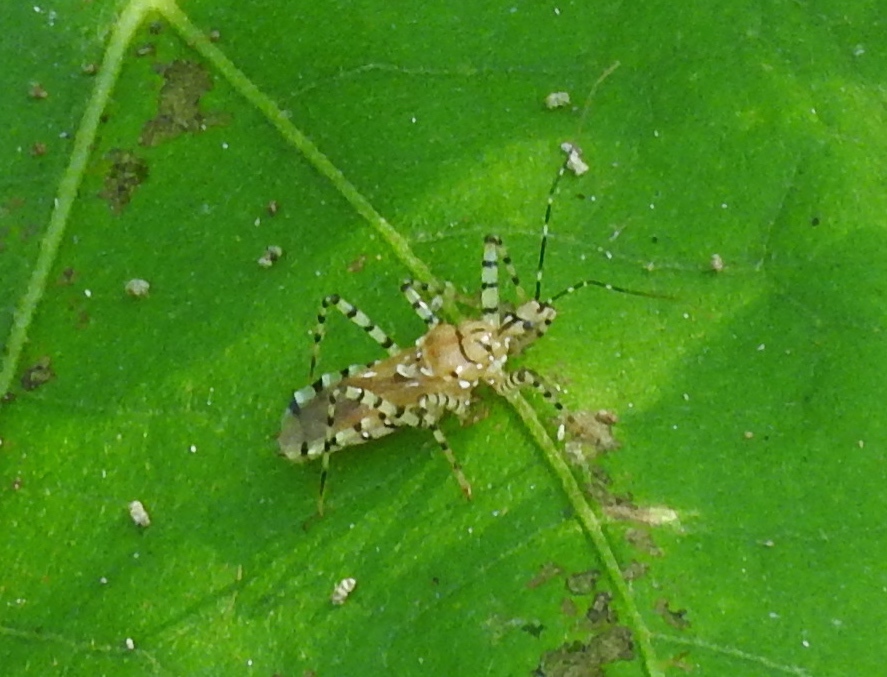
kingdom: Animalia
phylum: Arthropoda
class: Insecta
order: Hemiptera
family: Reduviidae
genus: Pselliopus
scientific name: Pselliopus
